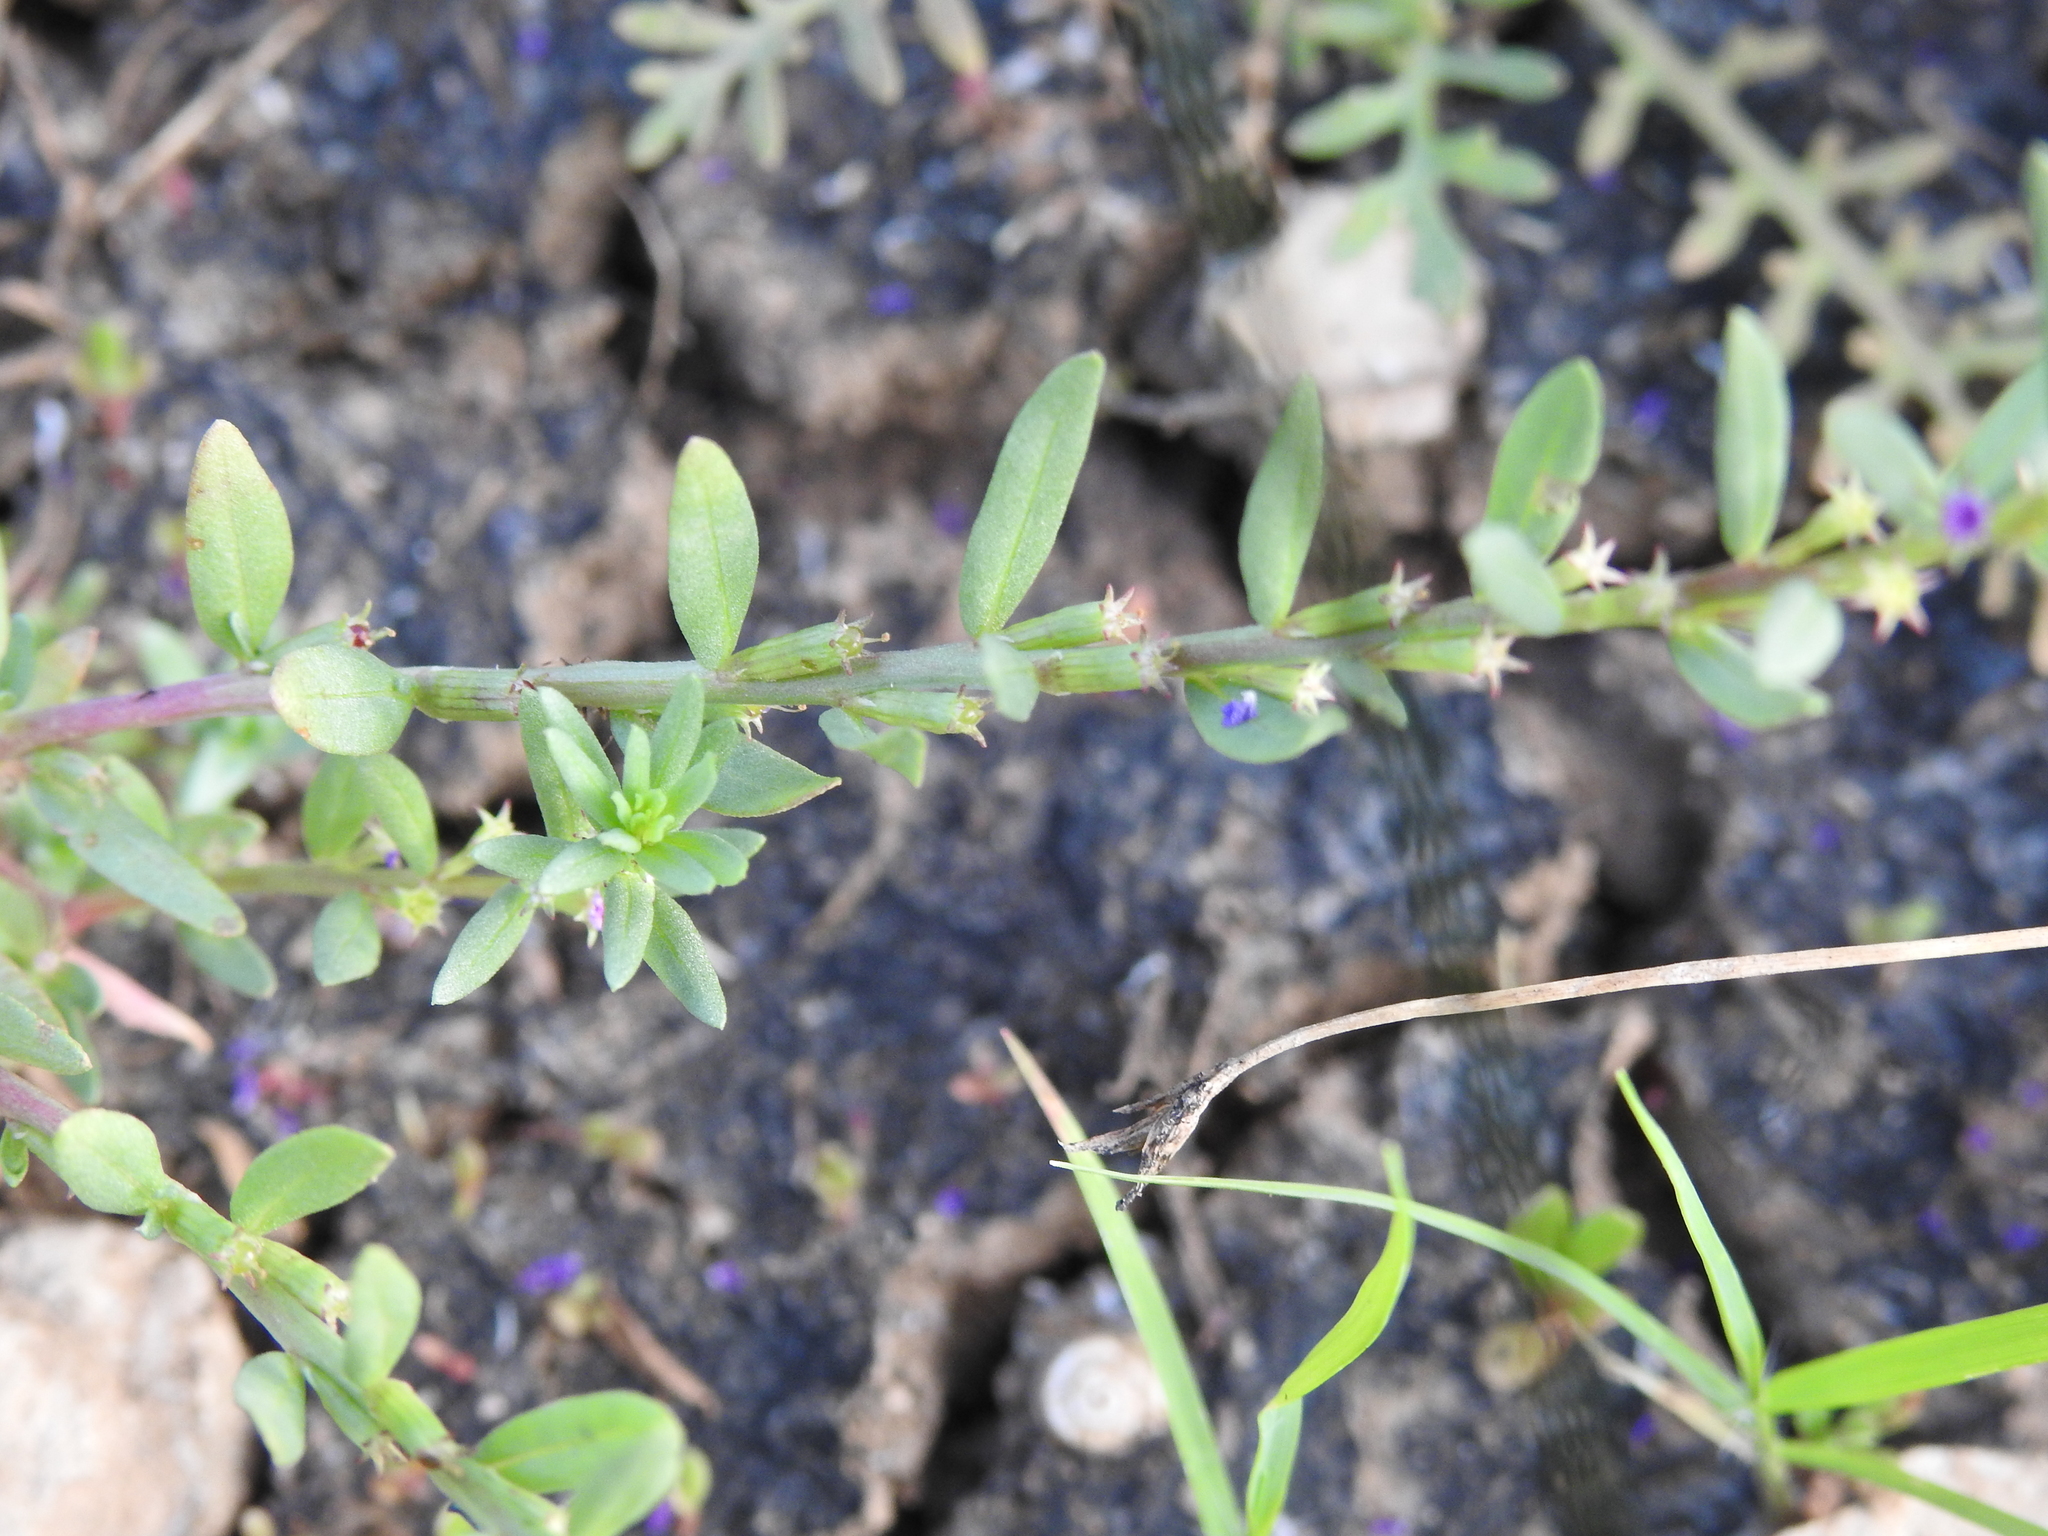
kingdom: Plantae
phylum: Tracheophyta
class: Magnoliopsida
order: Myrtales
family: Lythraceae
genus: Lythrum
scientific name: Lythrum hyssopifolia
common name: Grass-poly
